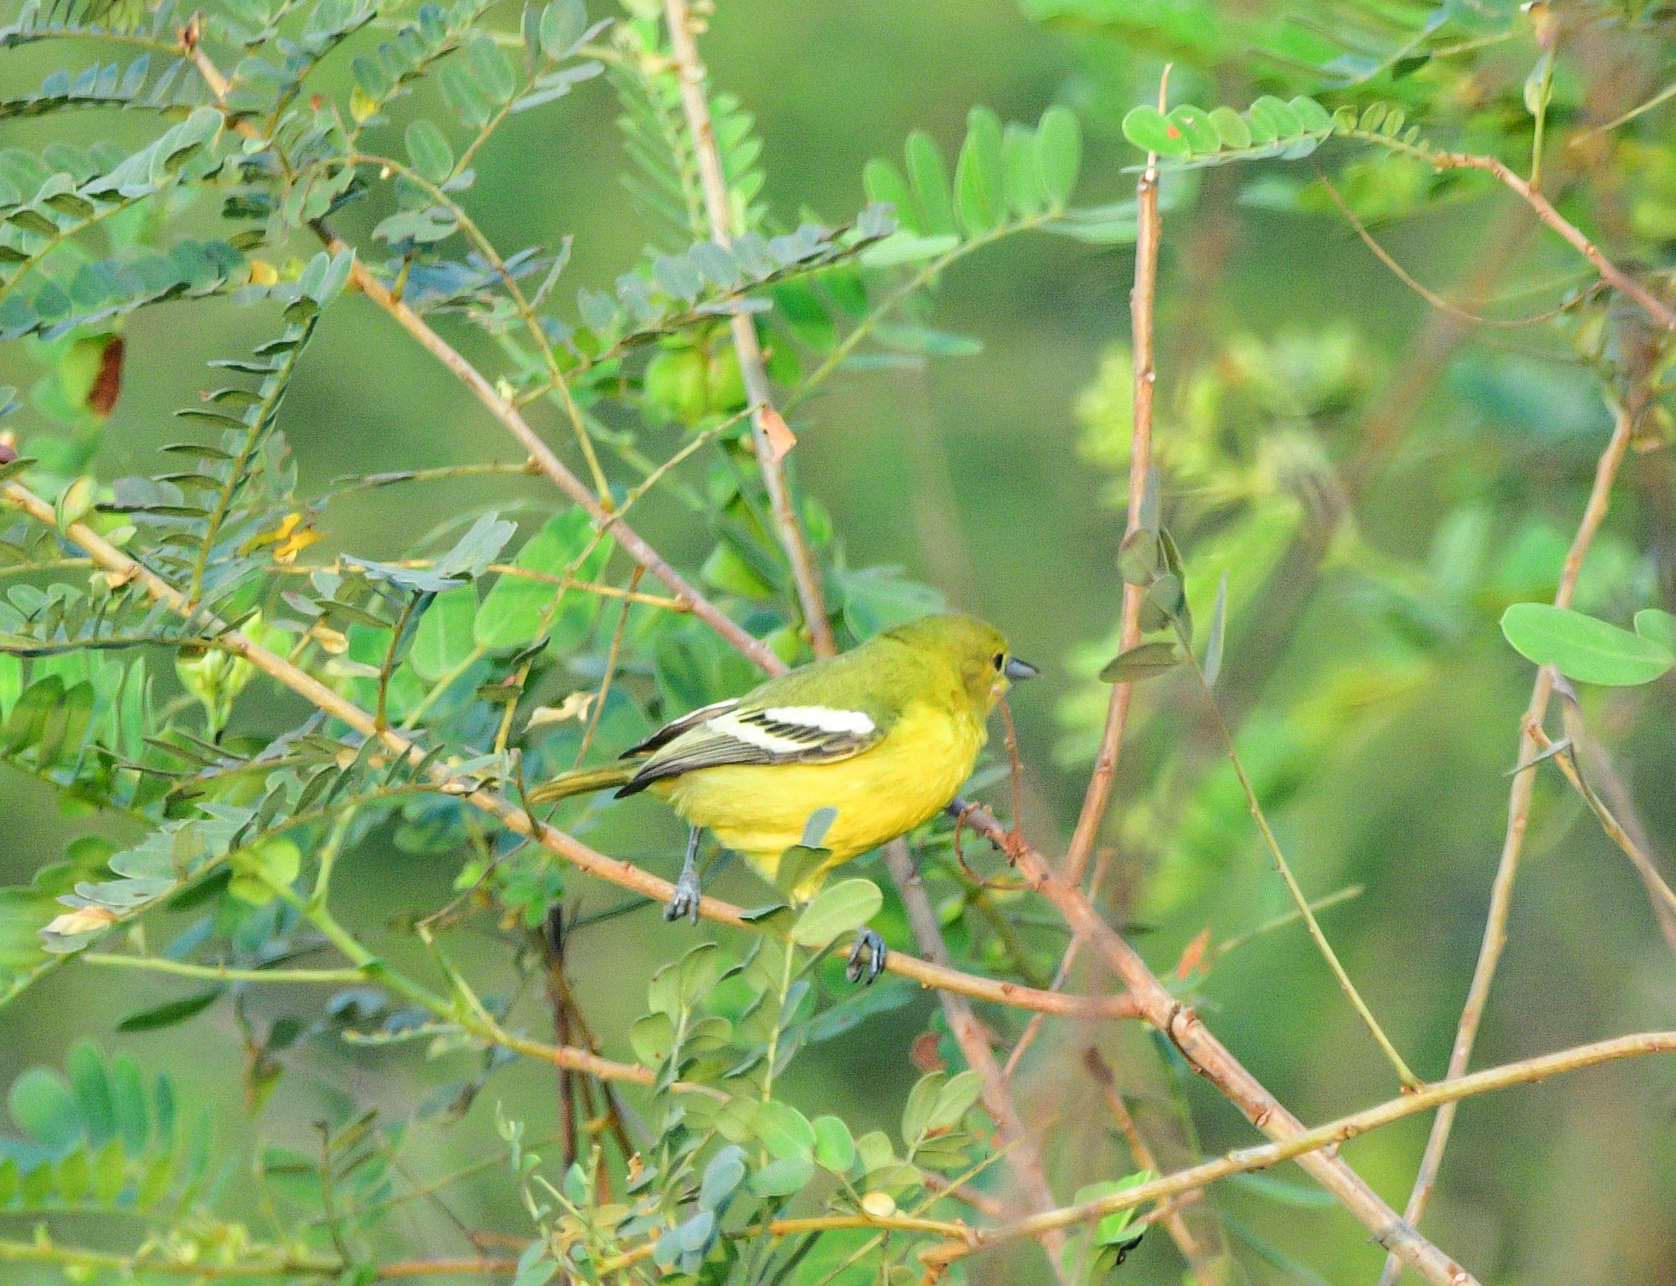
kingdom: Animalia
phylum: Chordata
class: Aves
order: Passeriformes
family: Aegithinidae
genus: Aegithina
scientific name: Aegithina tiphia
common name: Common iora
